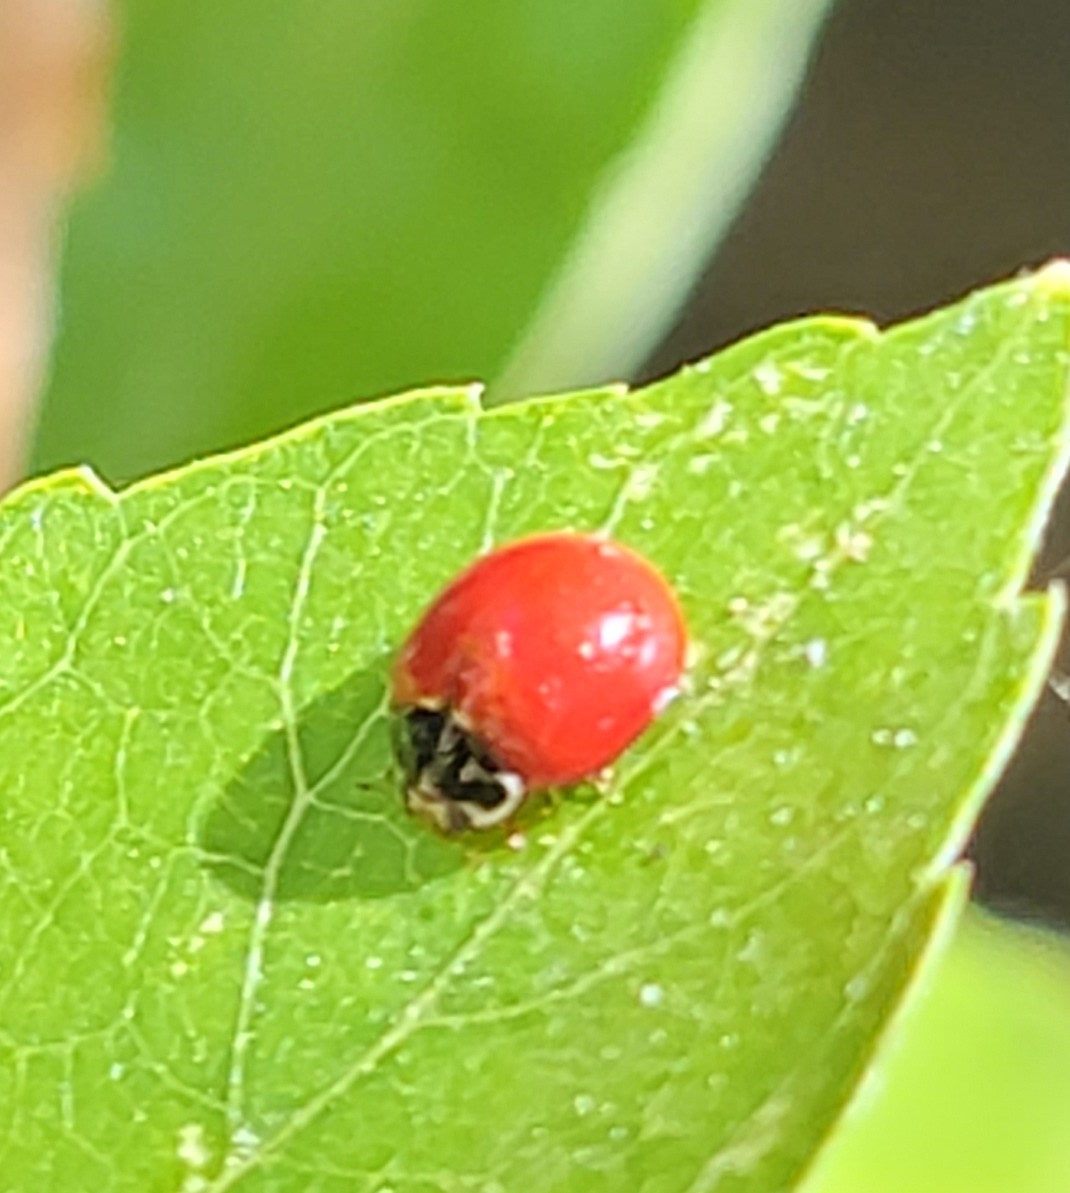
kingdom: Animalia
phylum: Arthropoda
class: Insecta
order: Coleoptera
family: Coccinellidae
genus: Cycloneda
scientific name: Cycloneda sanguinea
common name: Ladybird beetle
